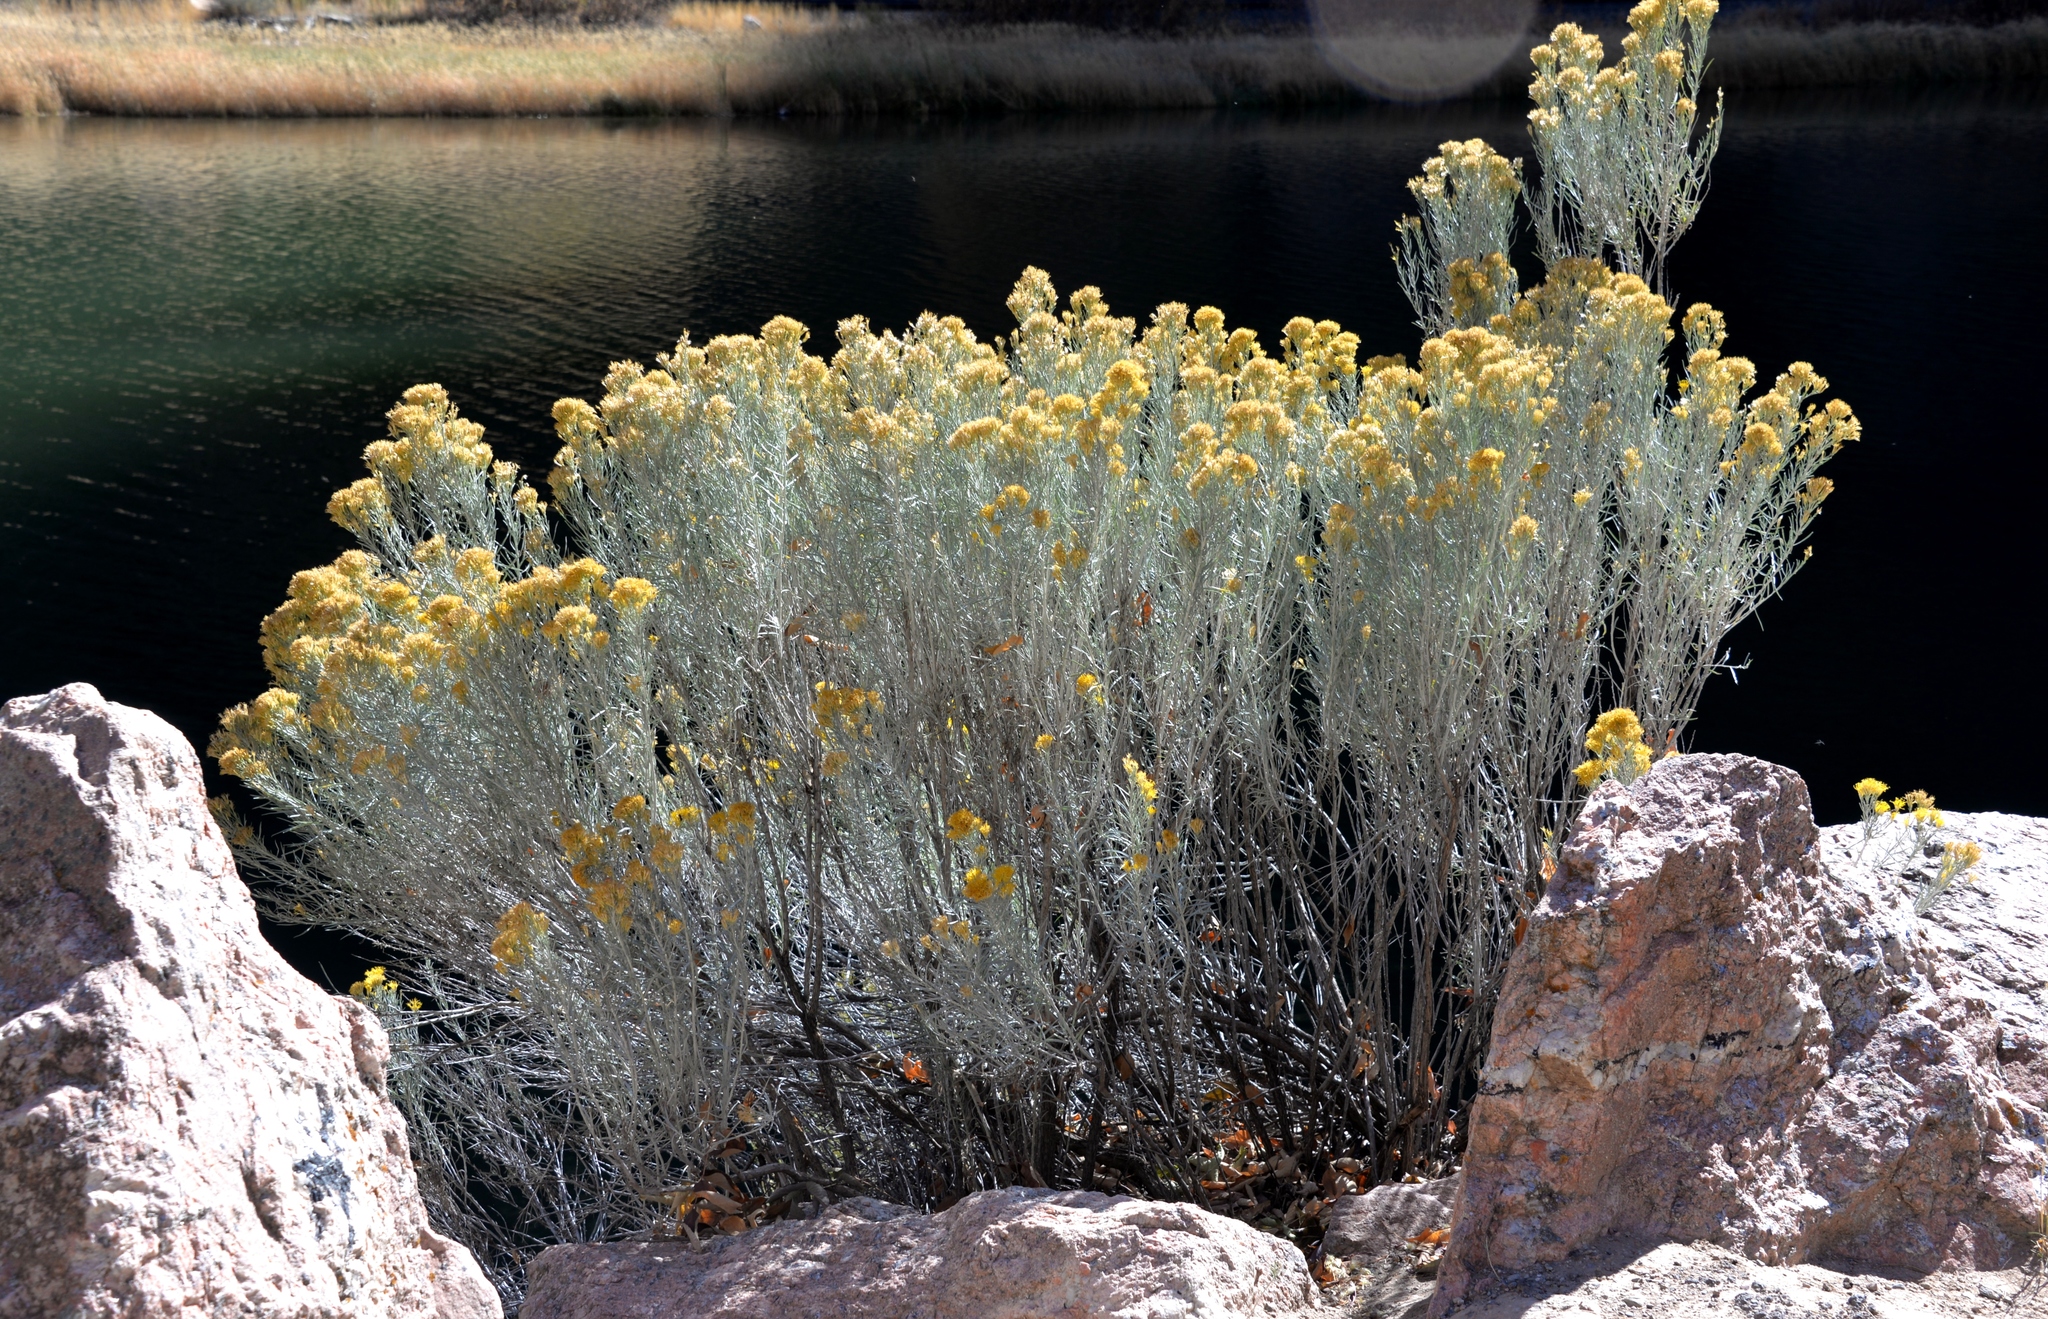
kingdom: Plantae
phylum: Tracheophyta
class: Magnoliopsida
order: Asterales
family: Asteraceae
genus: Ericameria
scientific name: Ericameria nauseosa
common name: Rubber rabbitbrush
